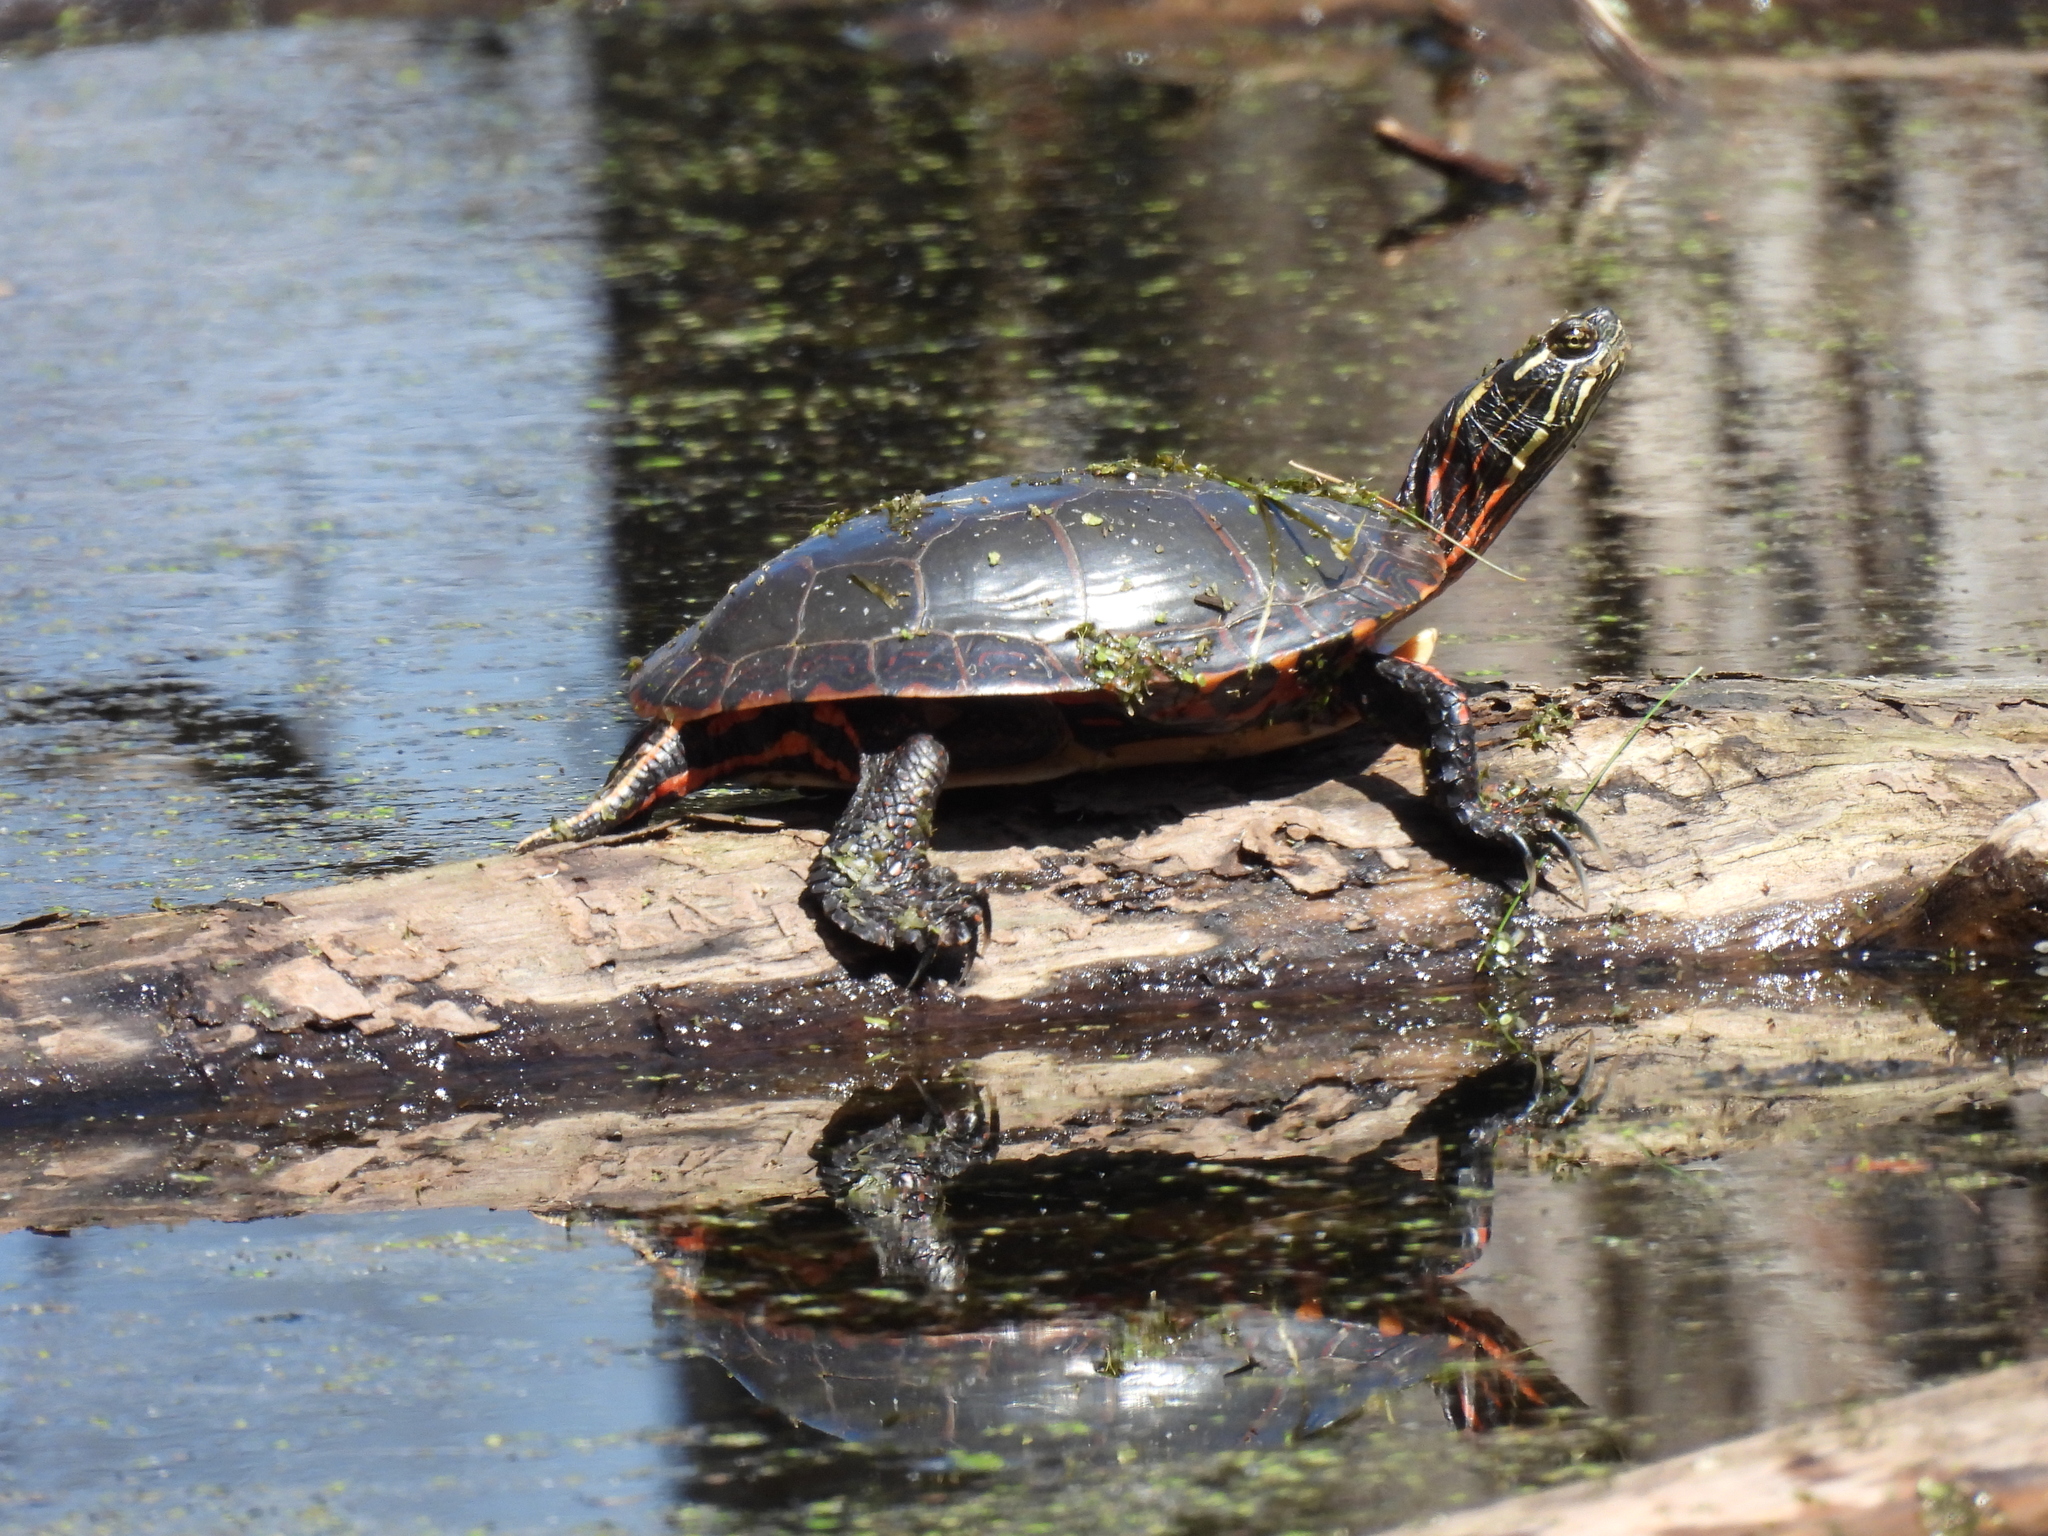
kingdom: Animalia
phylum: Chordata
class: Testudines
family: Emydidae
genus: Chrysemys
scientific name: Chrysemys picta
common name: Painted turtle
